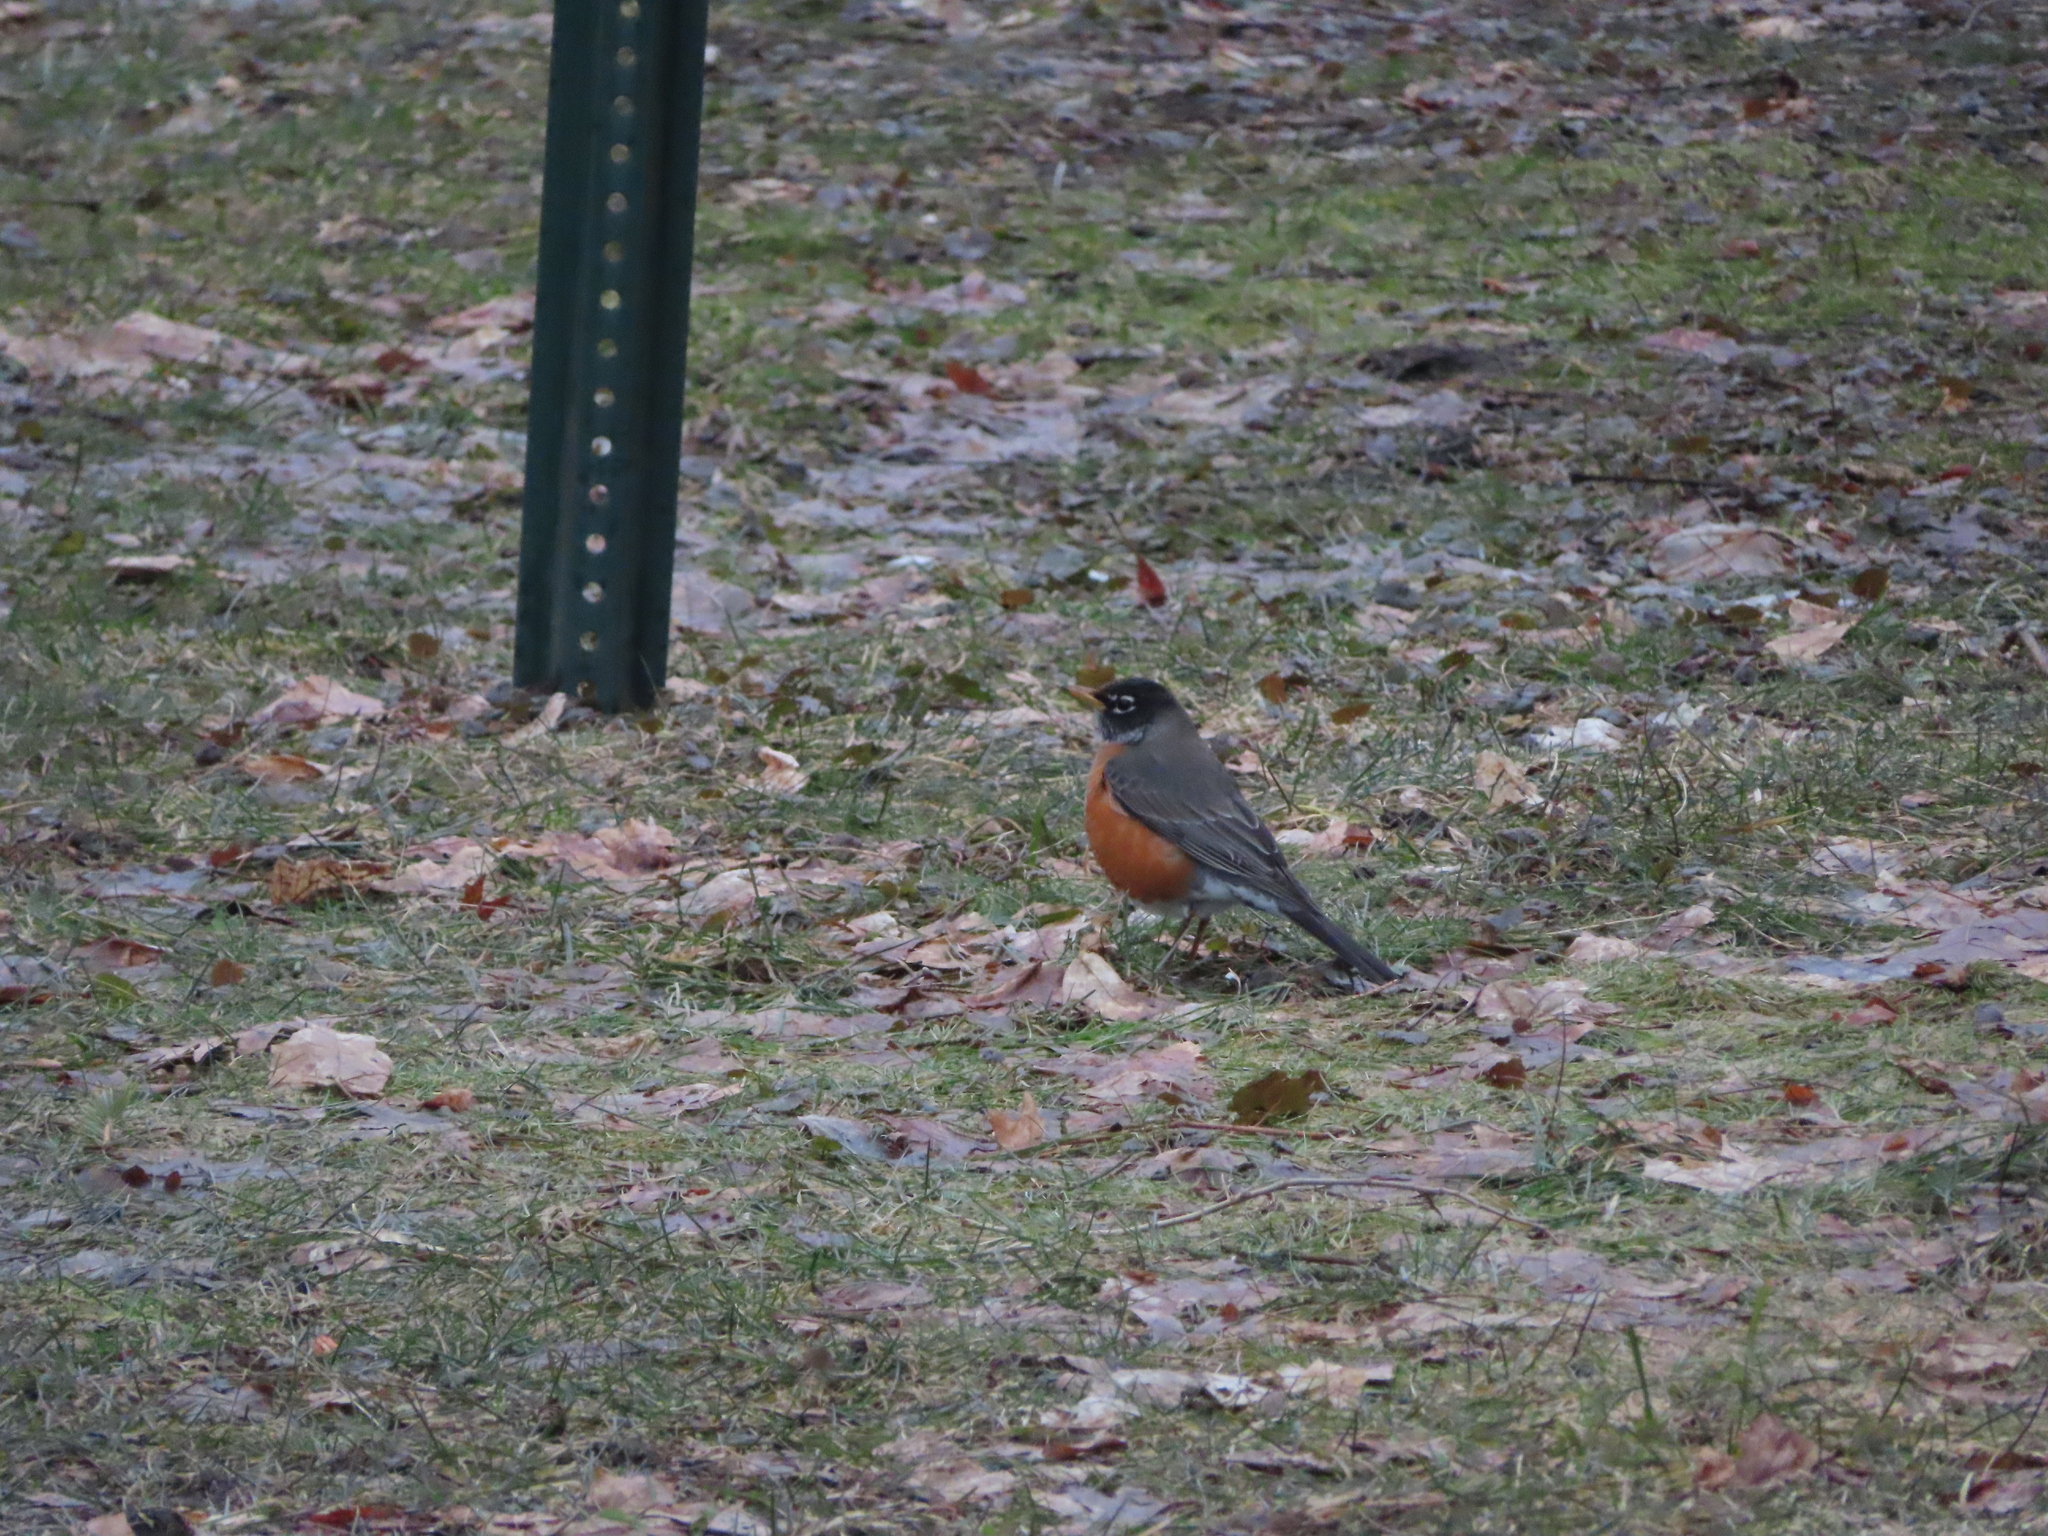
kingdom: Animalia
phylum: Chordata
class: Aves
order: Passeriformes
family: Turdidae
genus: Turdus
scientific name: Turdus migratorius
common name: American robin
